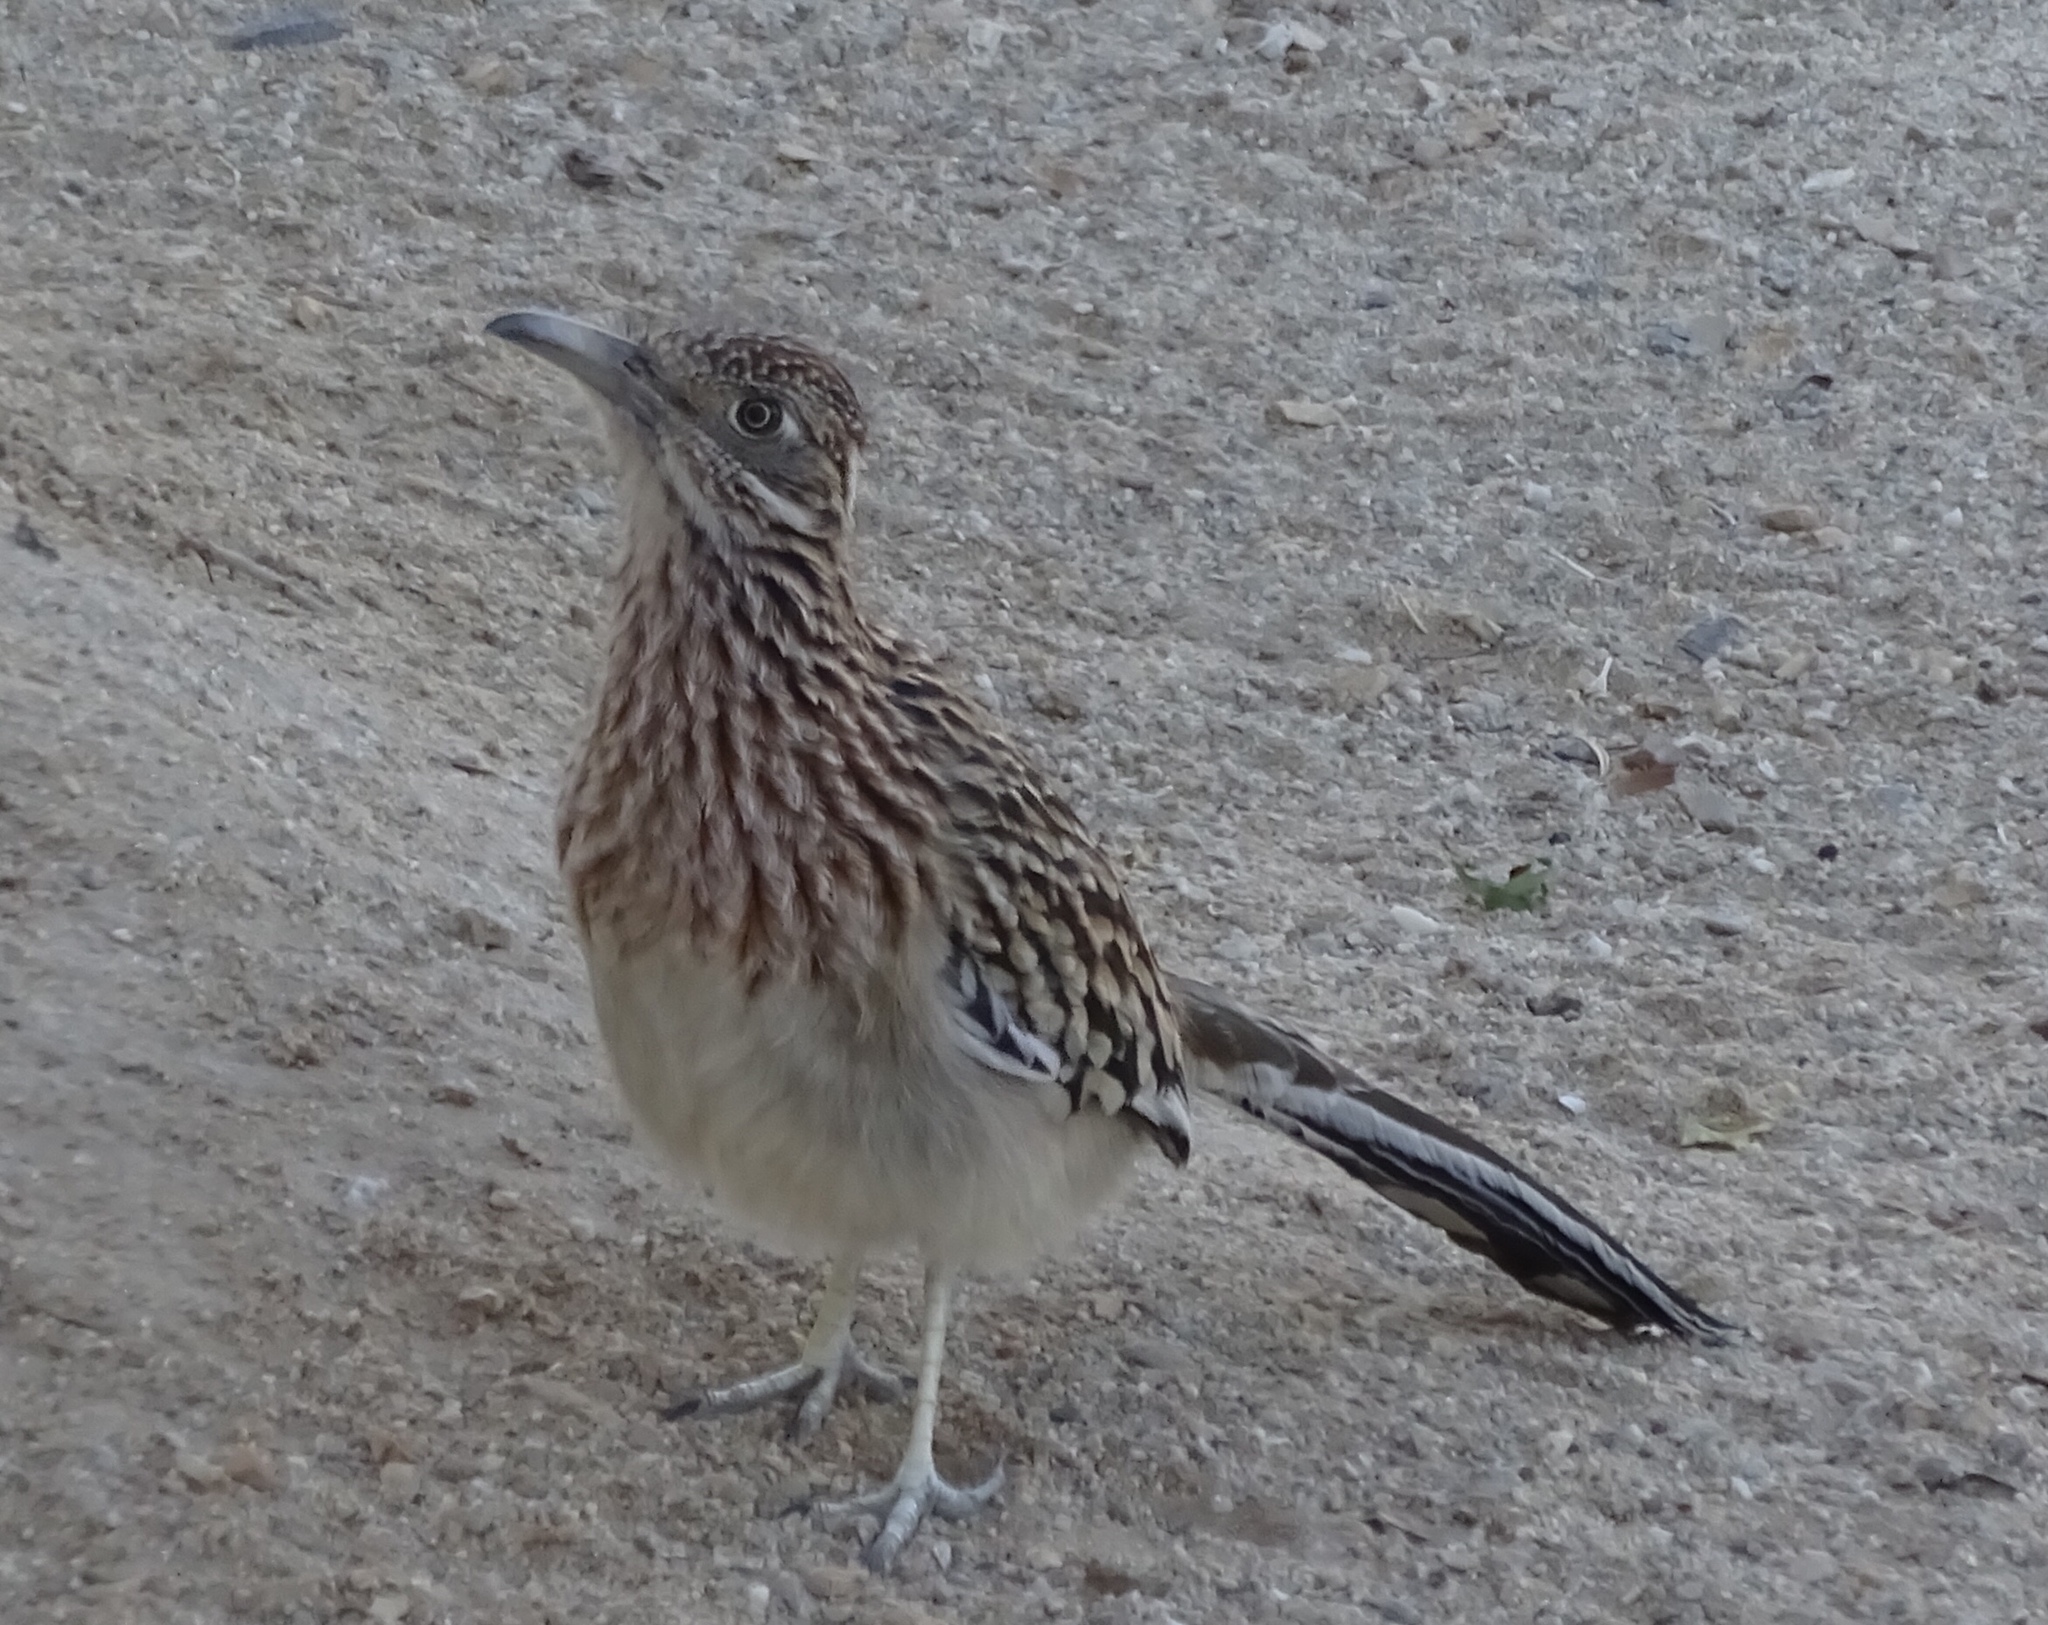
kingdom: Animalia
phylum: Chordata
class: Aves
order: Cuculiformes
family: Cuculidae
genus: Geococcyx
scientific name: Geococcyx californianus
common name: Greater roadrunner
